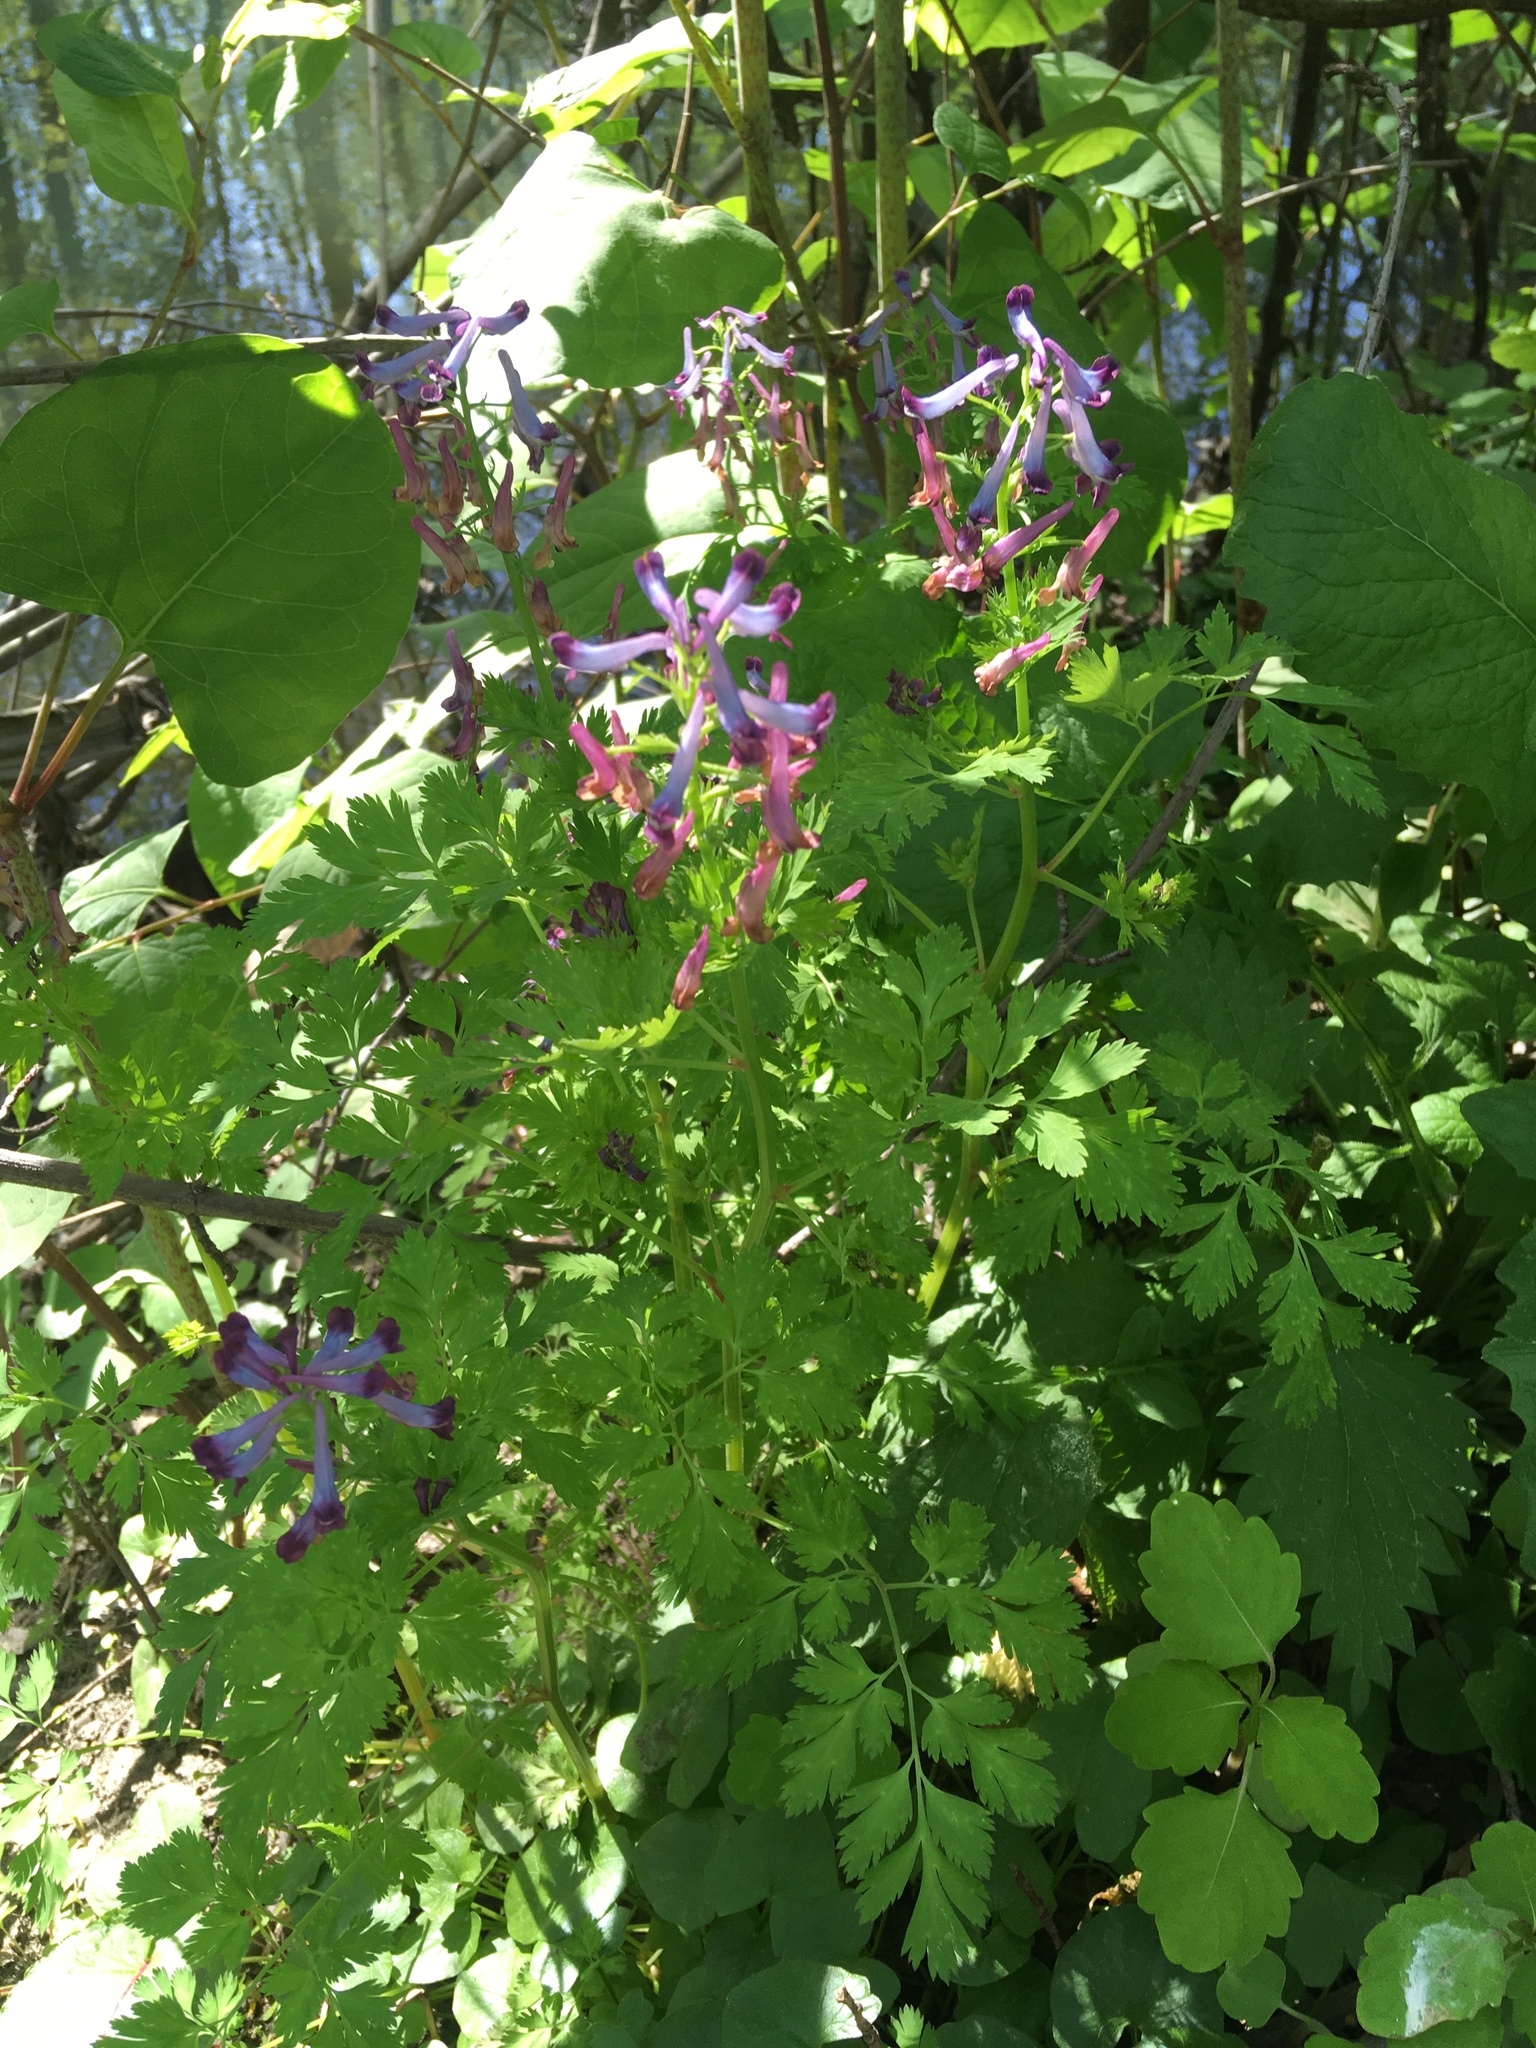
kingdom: Plantae
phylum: Tracheophyta
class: Magnoliopsida
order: Ranunculales
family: Papaveraceae
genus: Corydalis
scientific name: Corydalis incisa
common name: Incised fumewort
